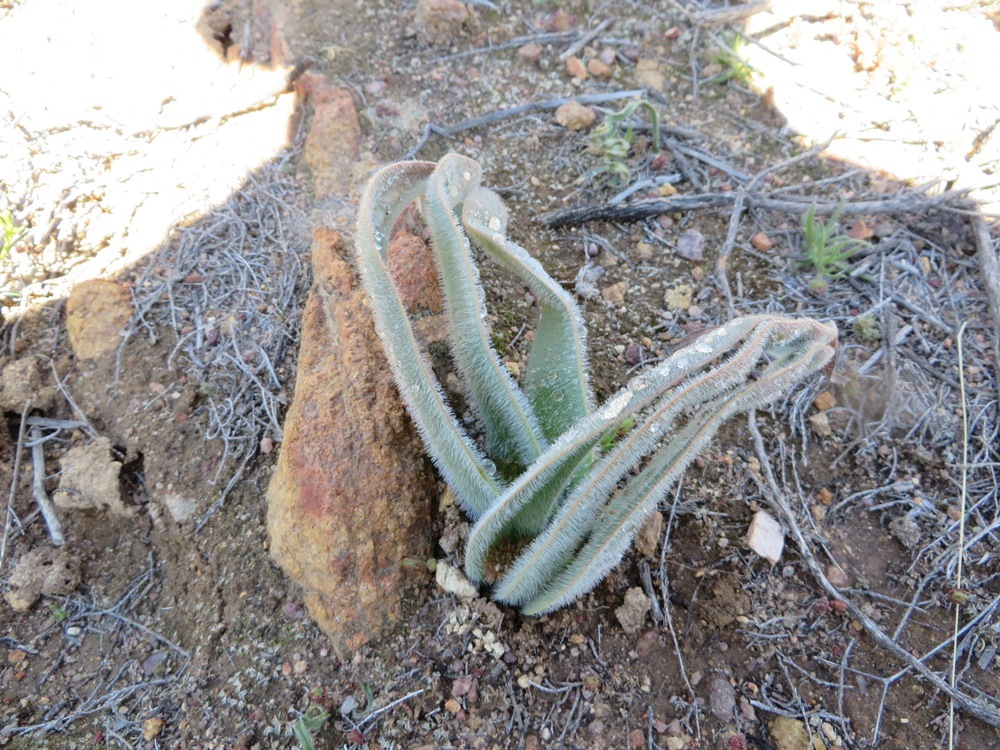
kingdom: Plantae
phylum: Tracheophyta
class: Liliopsida
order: Asparagales
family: Asphodelaceae
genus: Trachyandra
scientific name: Trachyandra falcata
